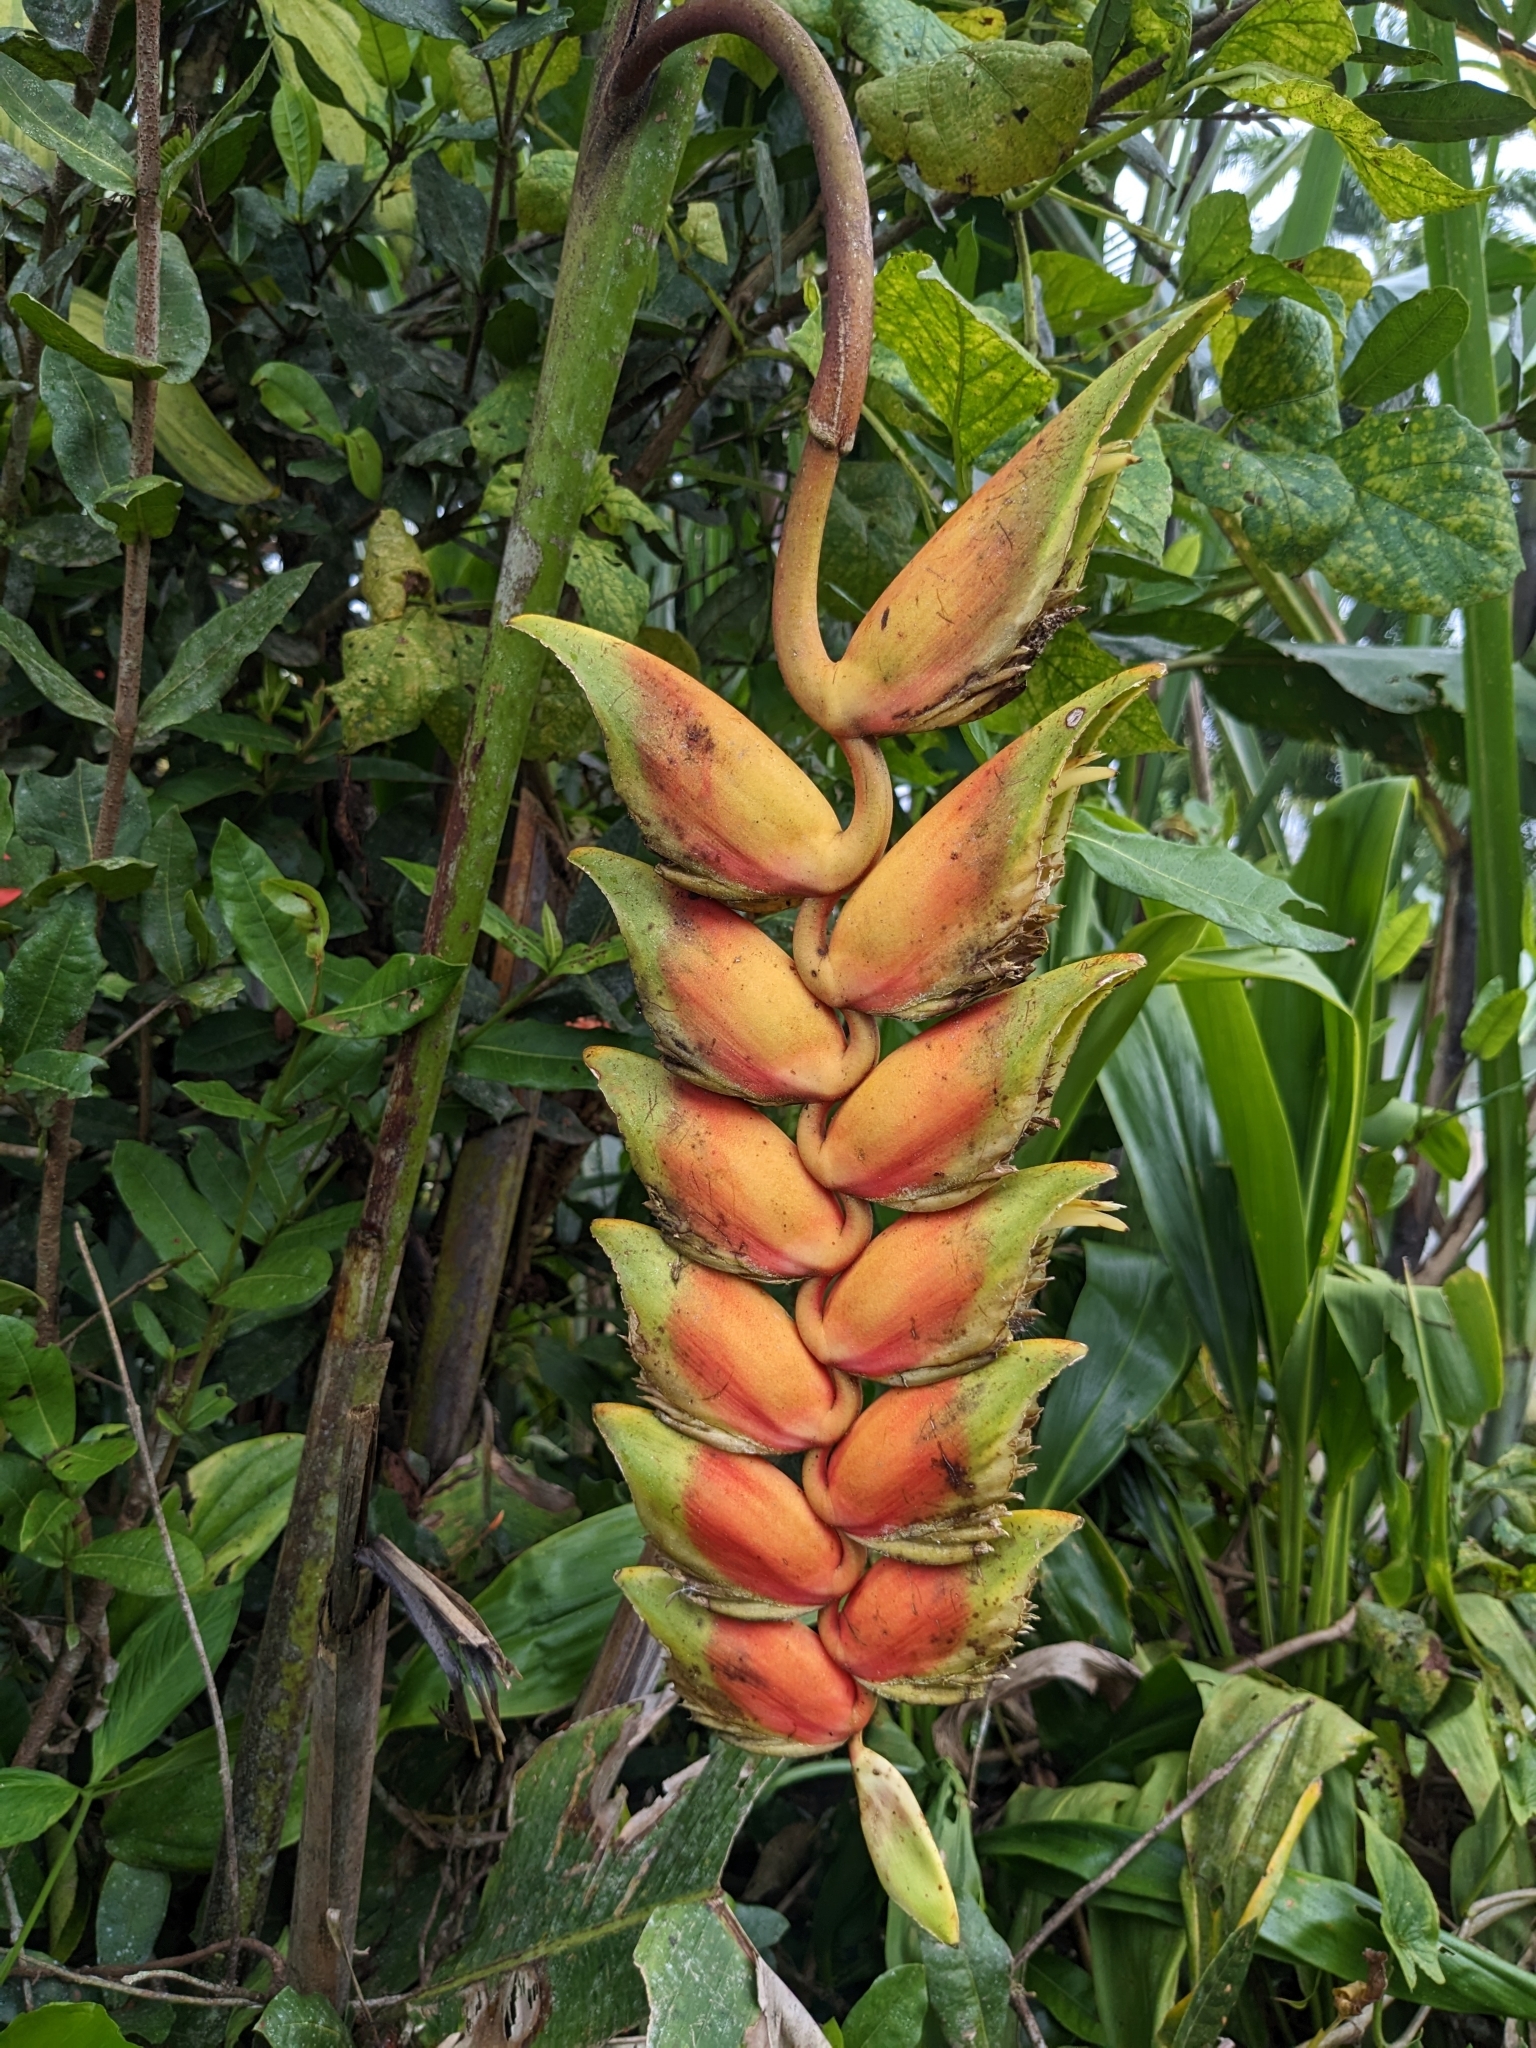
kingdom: Plantae
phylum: Tracheophyta
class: Liliopsida
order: Zingiberales
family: Heliconiaceae
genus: Heliconia
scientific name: Heliconia rostrata
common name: False bird of paradise
